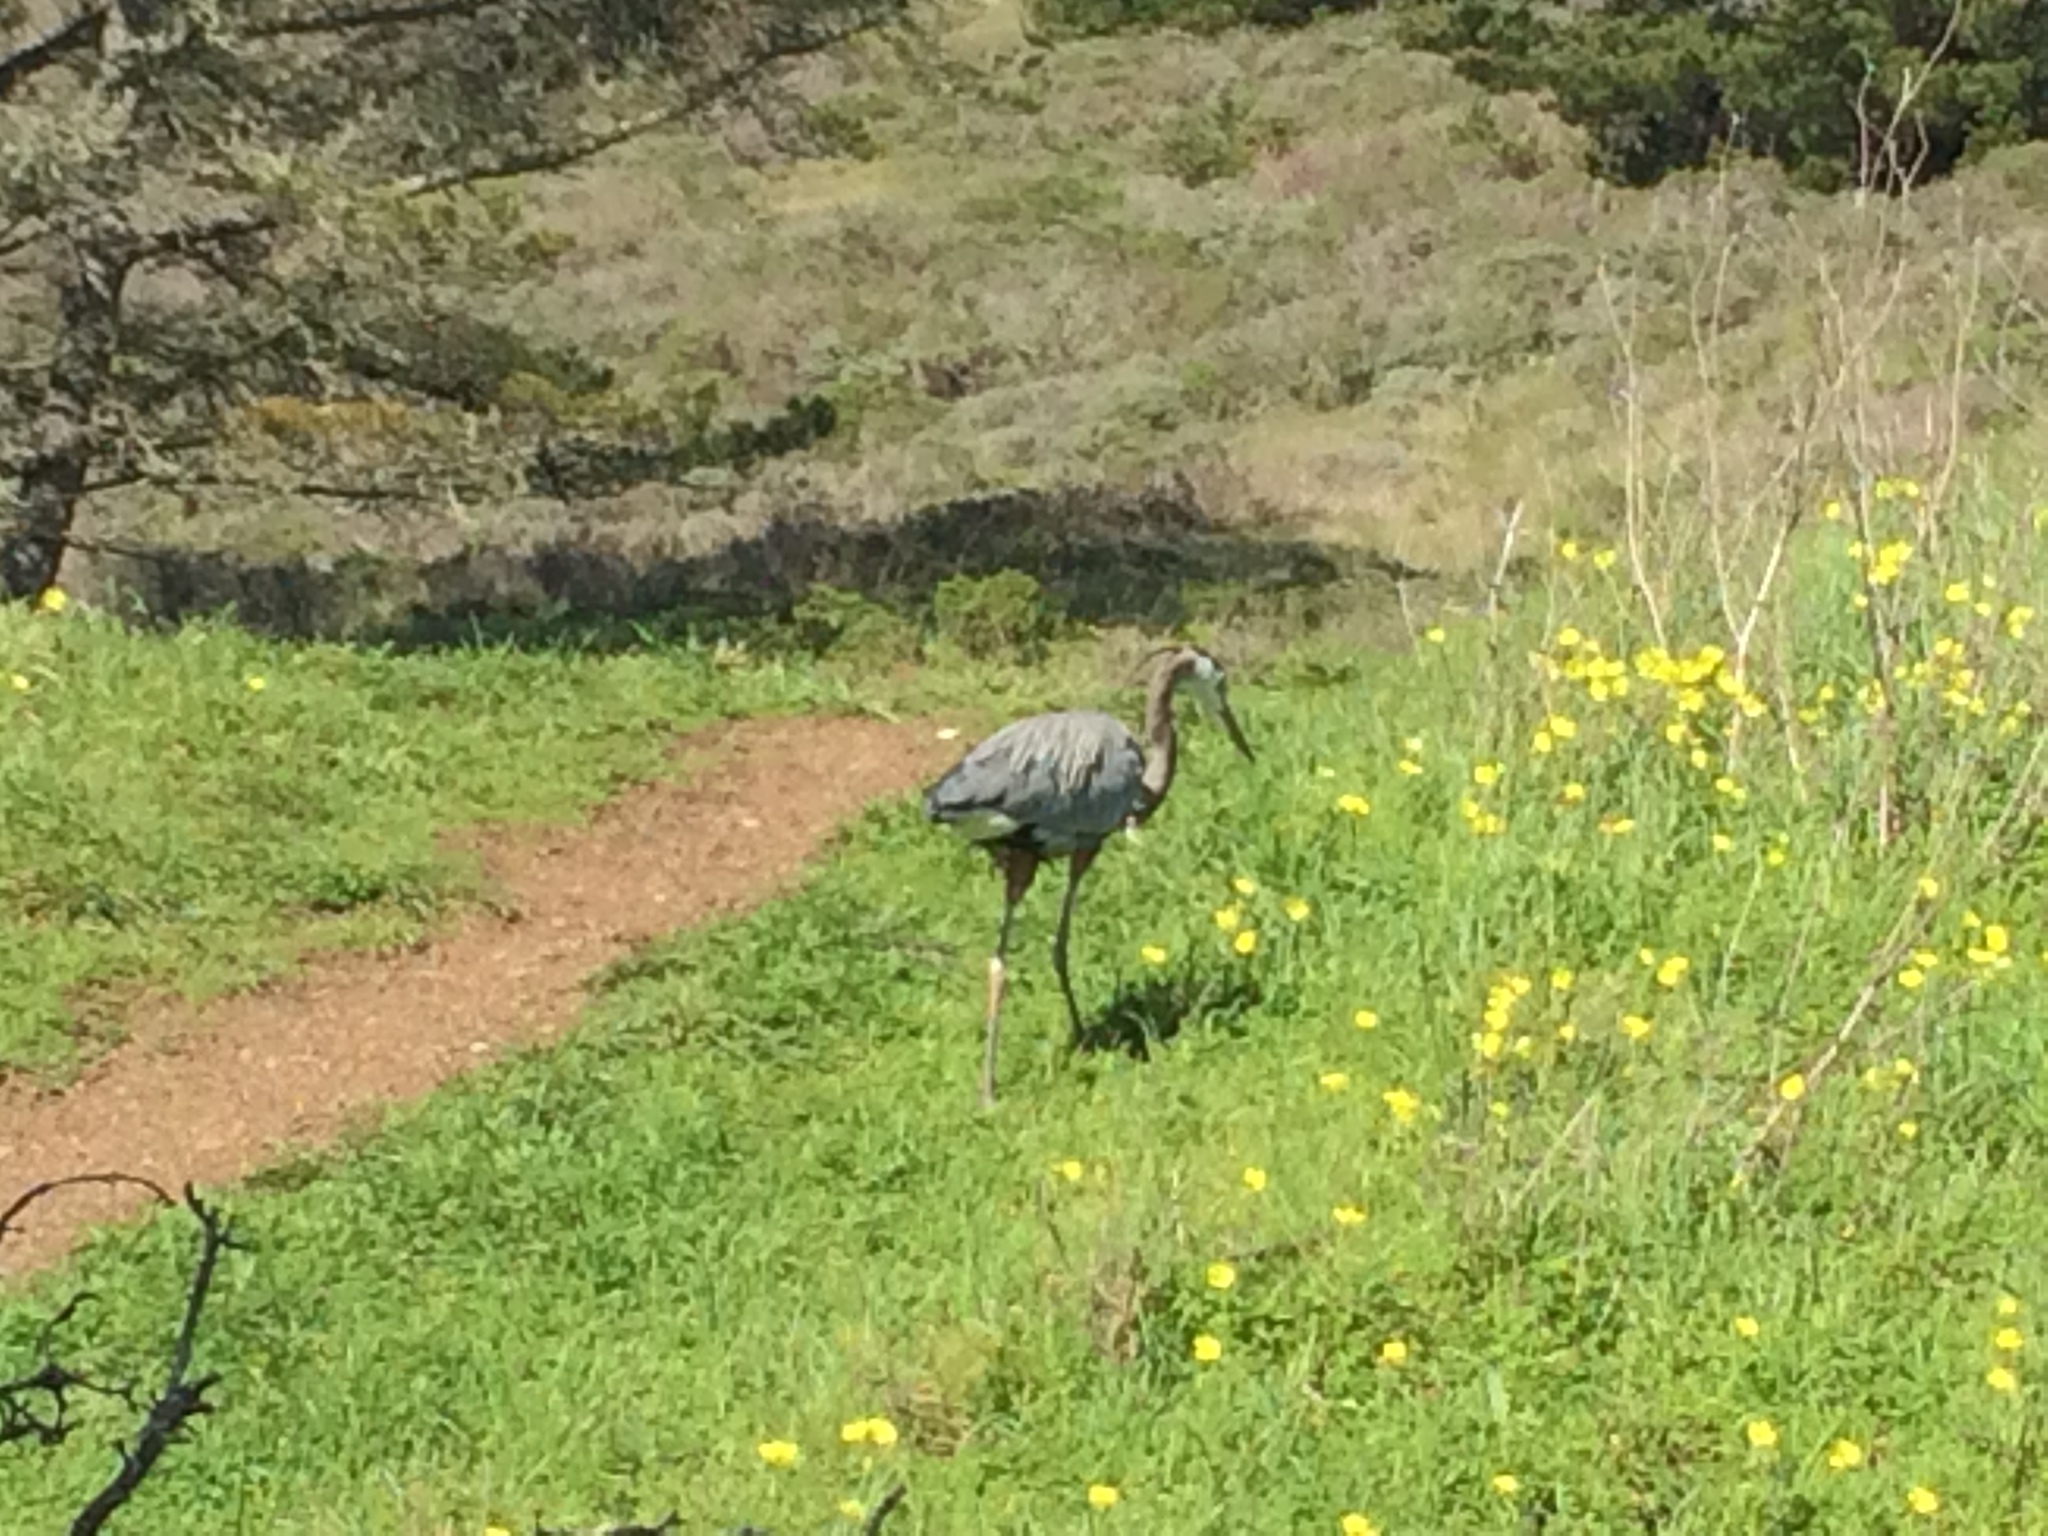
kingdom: Animalia
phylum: Chordata
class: Aves
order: Pelecaniformes
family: Ardeidae
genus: Ardea
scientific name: Ardea herodias
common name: Great blue heron
